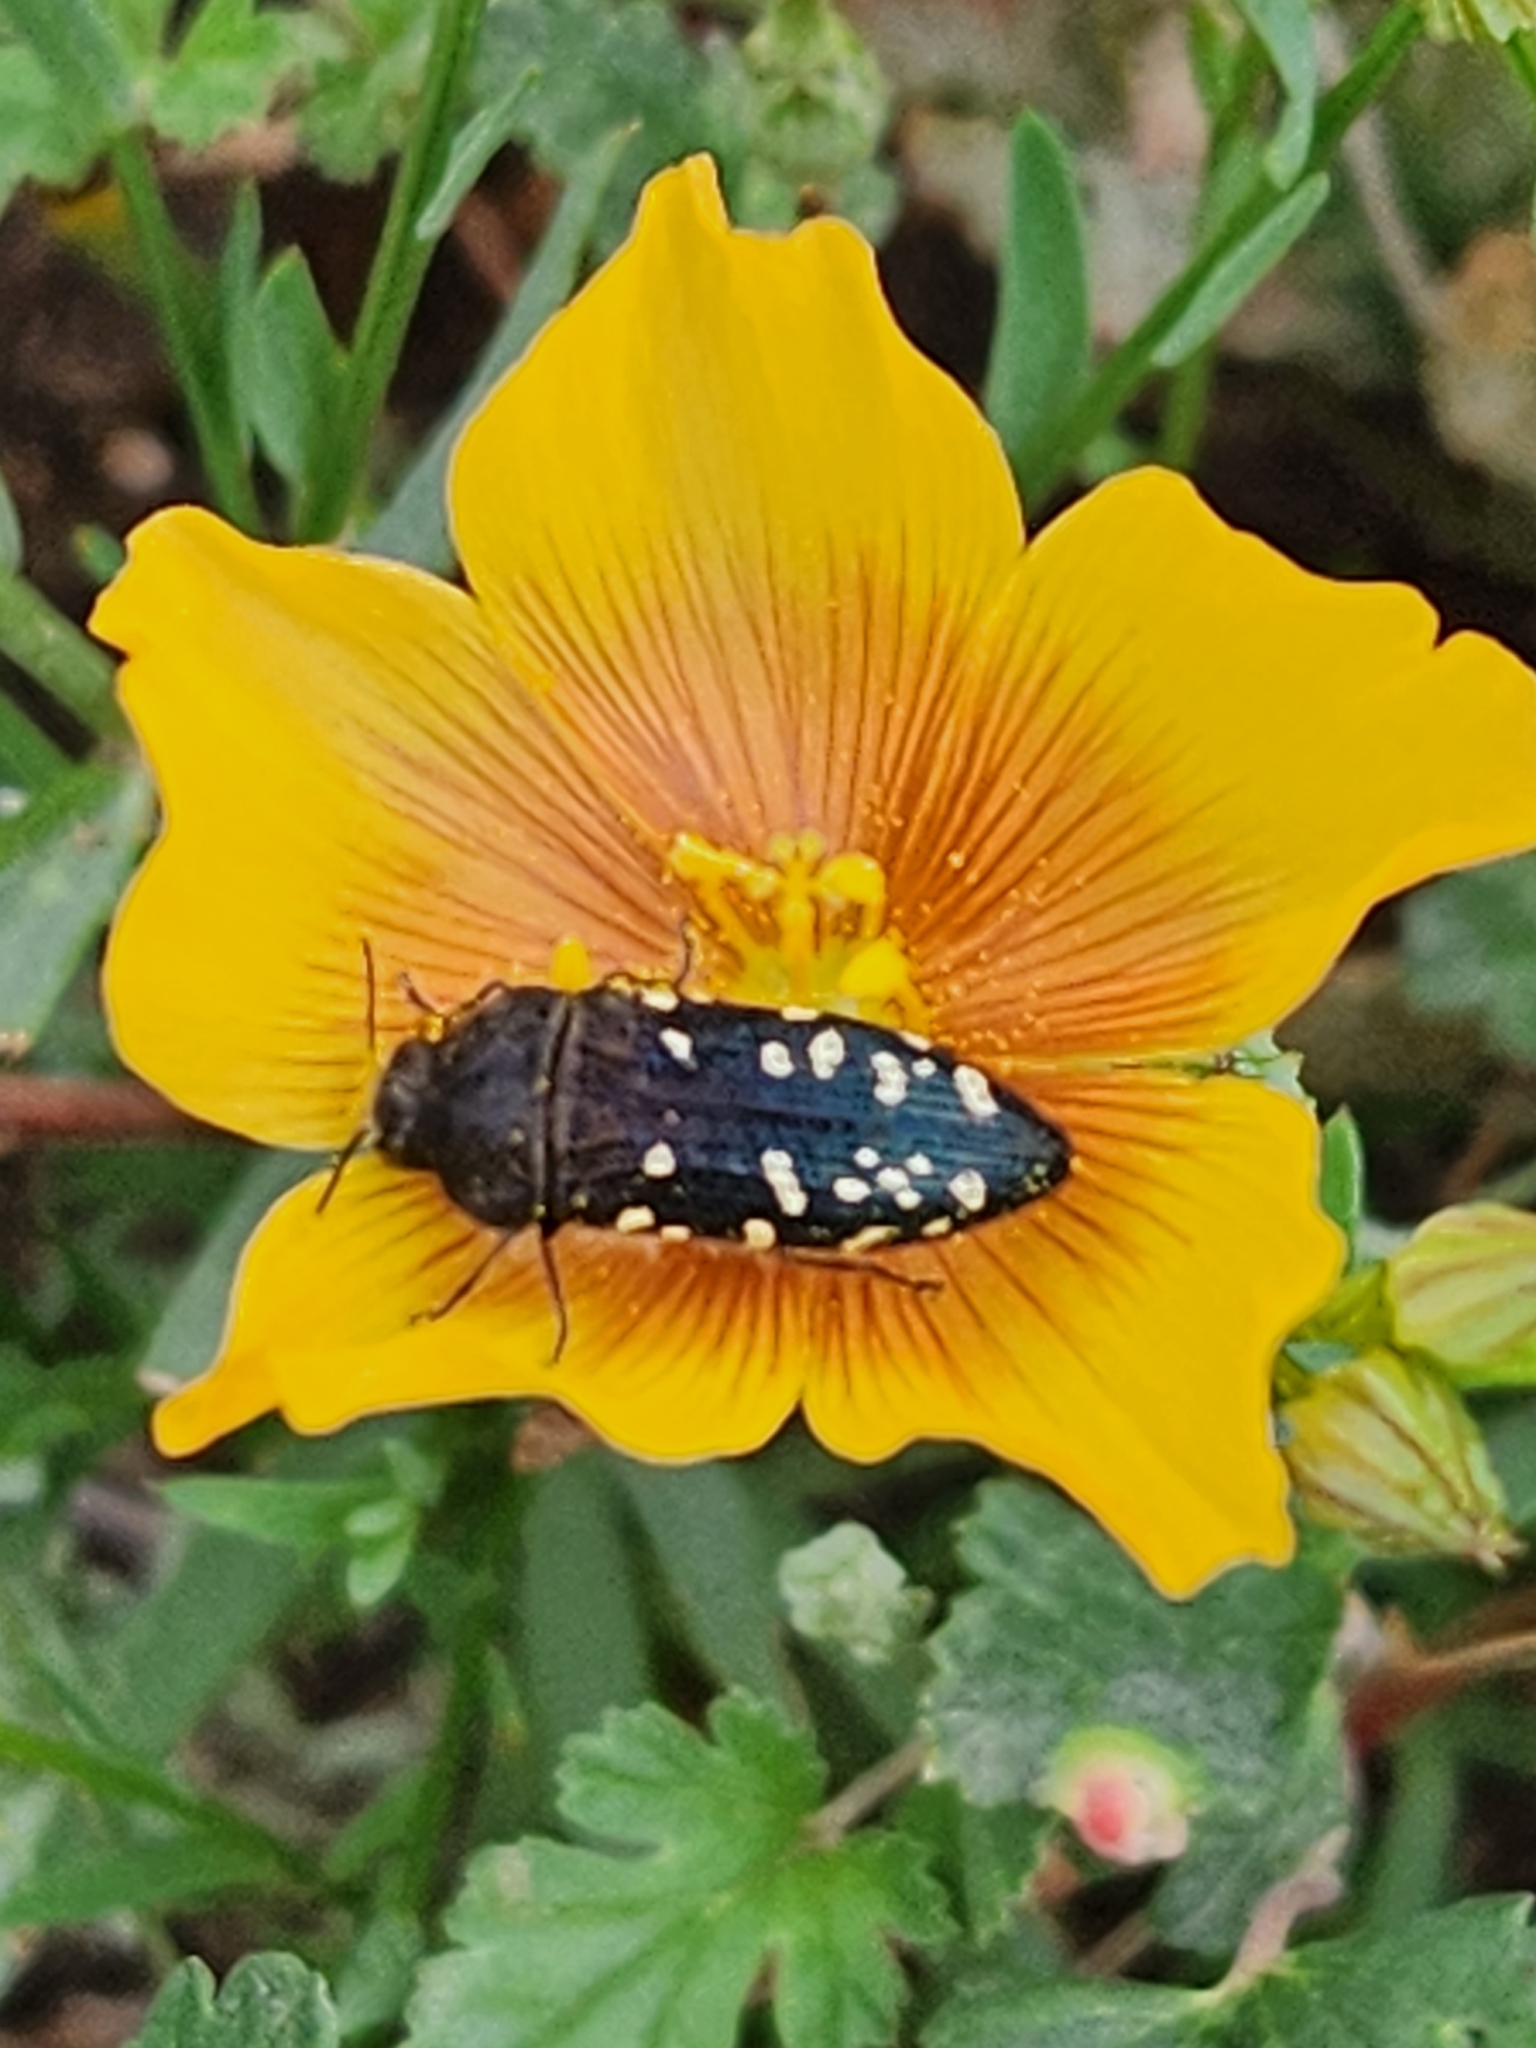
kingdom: Animalia
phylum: Arthropoda
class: Insecta
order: Coleoptera
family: Buprestidae
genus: Acmaeodera
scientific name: Acmaeodera ornatoides
